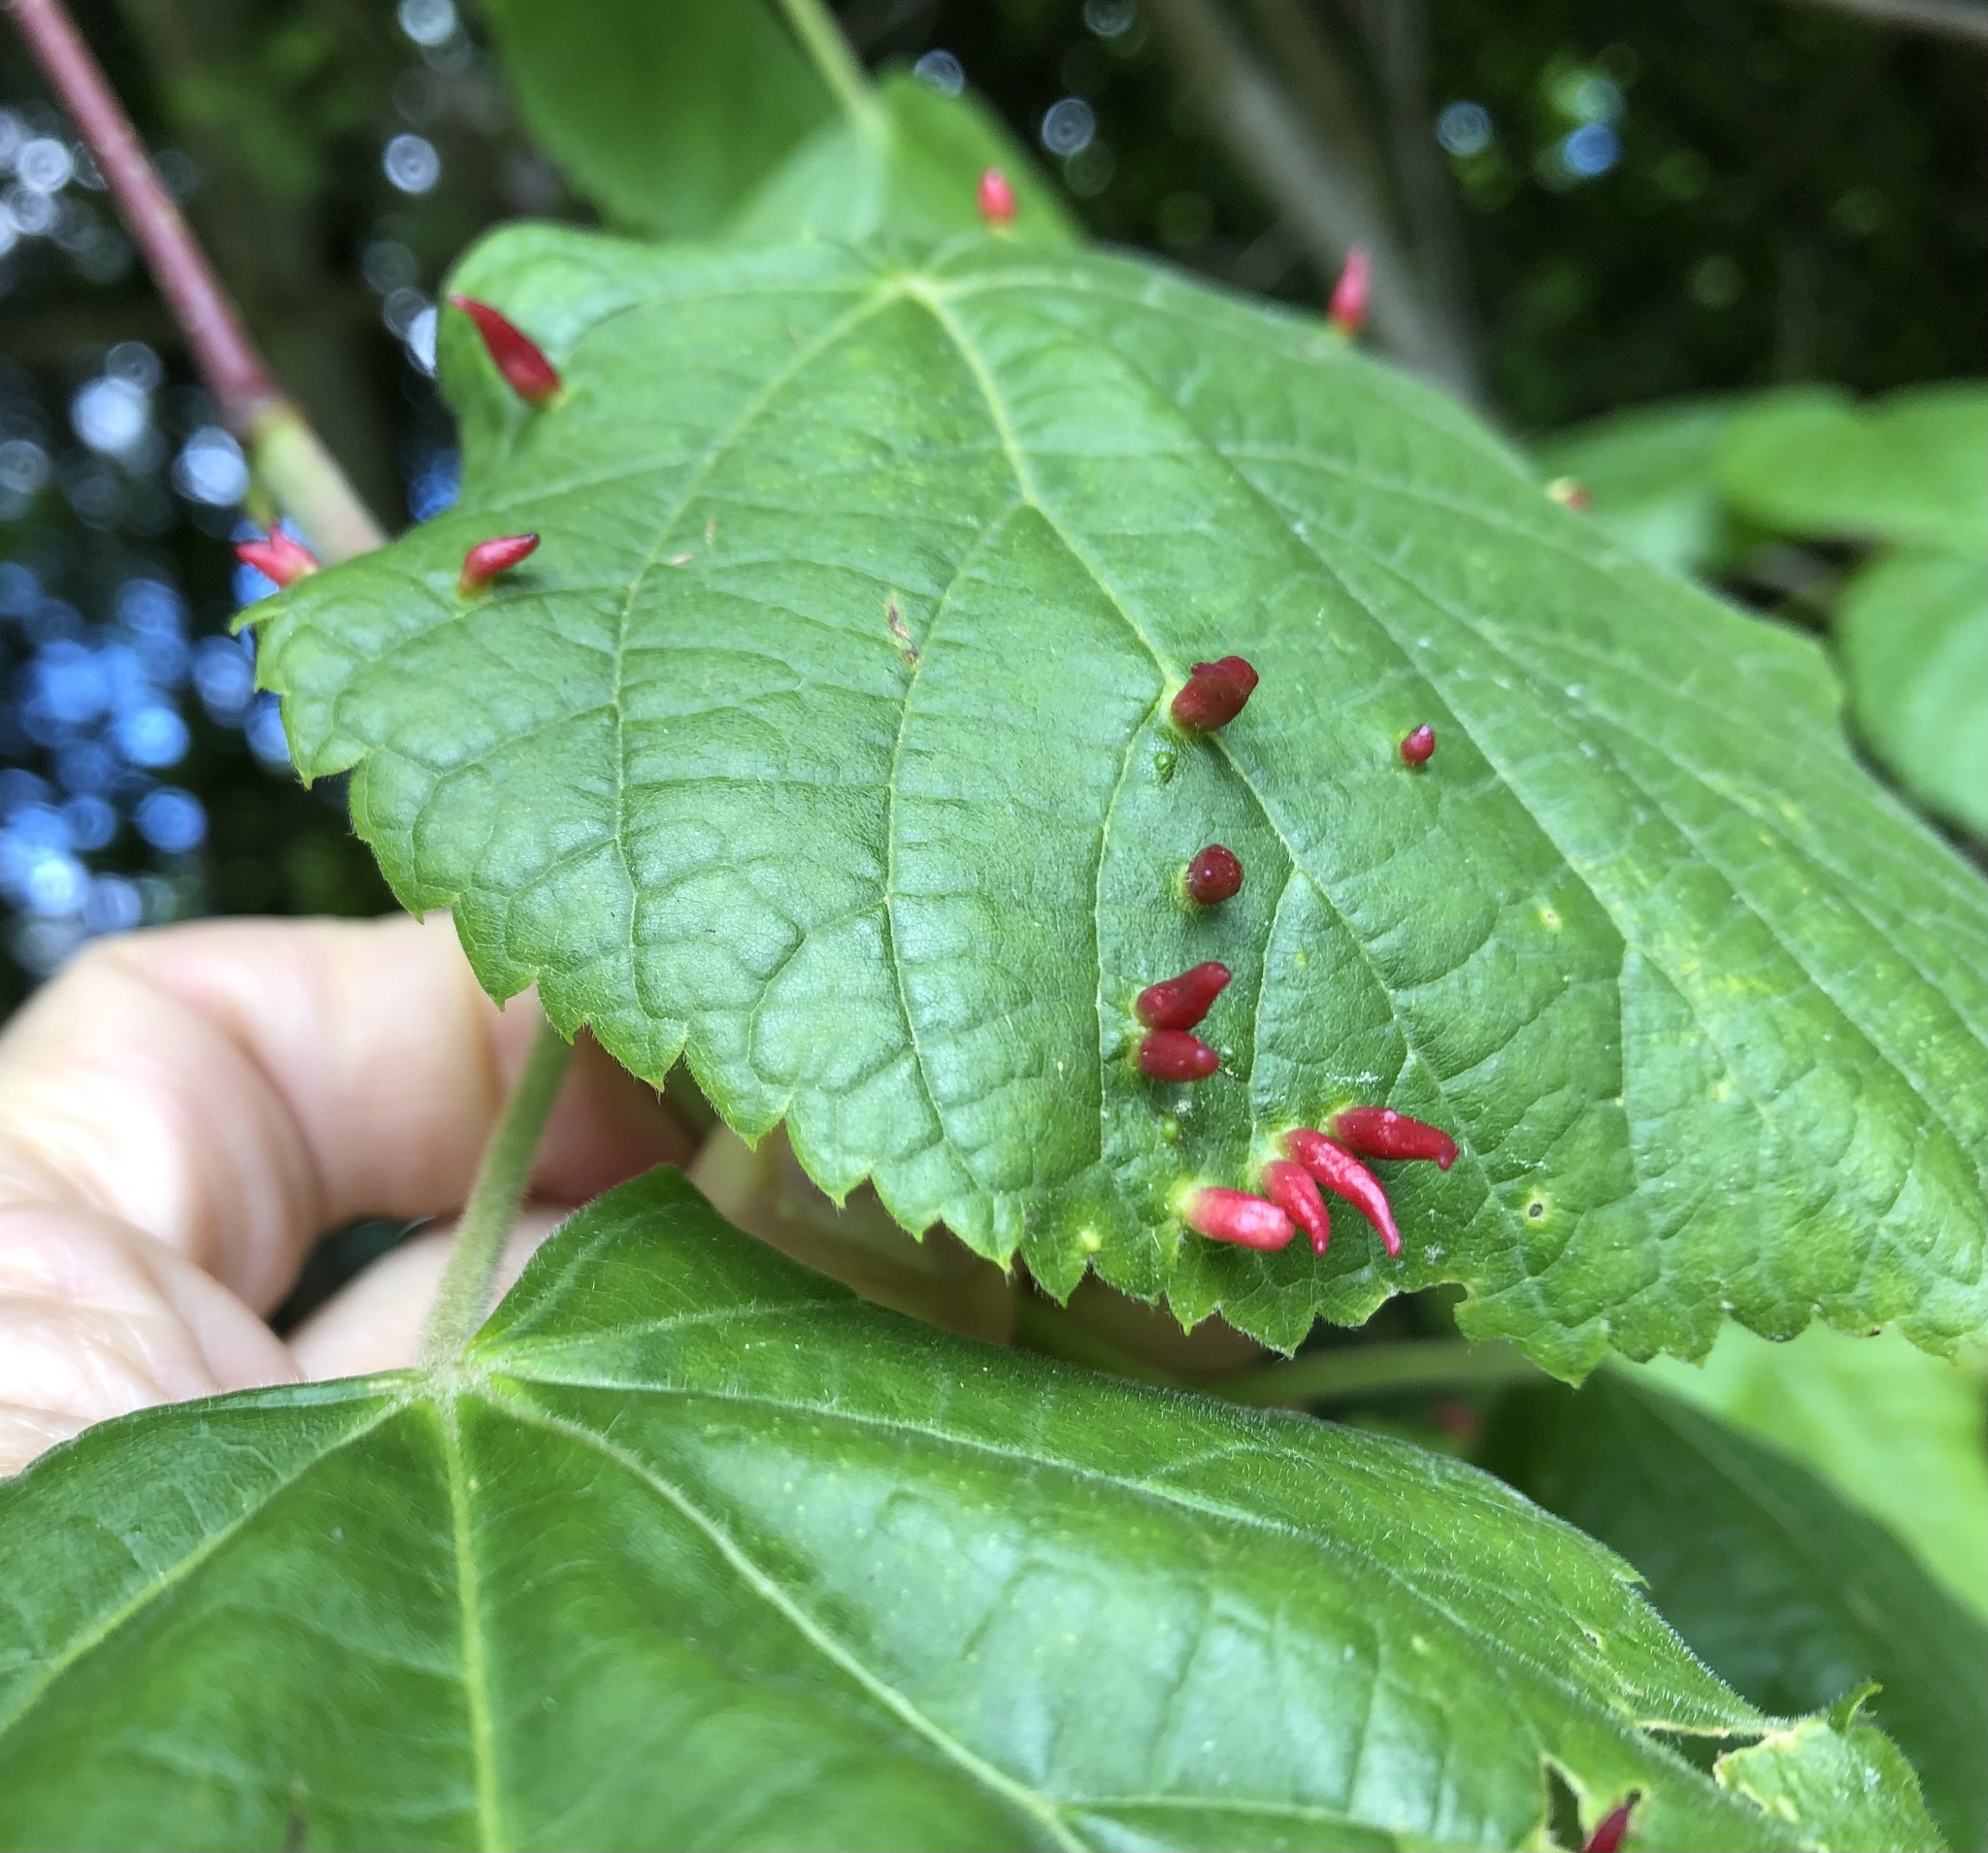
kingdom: Animalia
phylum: Arthropoda
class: Arachnida
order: Trombidiformes
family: Eriophyidae
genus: Eriophyes
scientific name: Eriophyes tiliae
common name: Red nail gall mite
